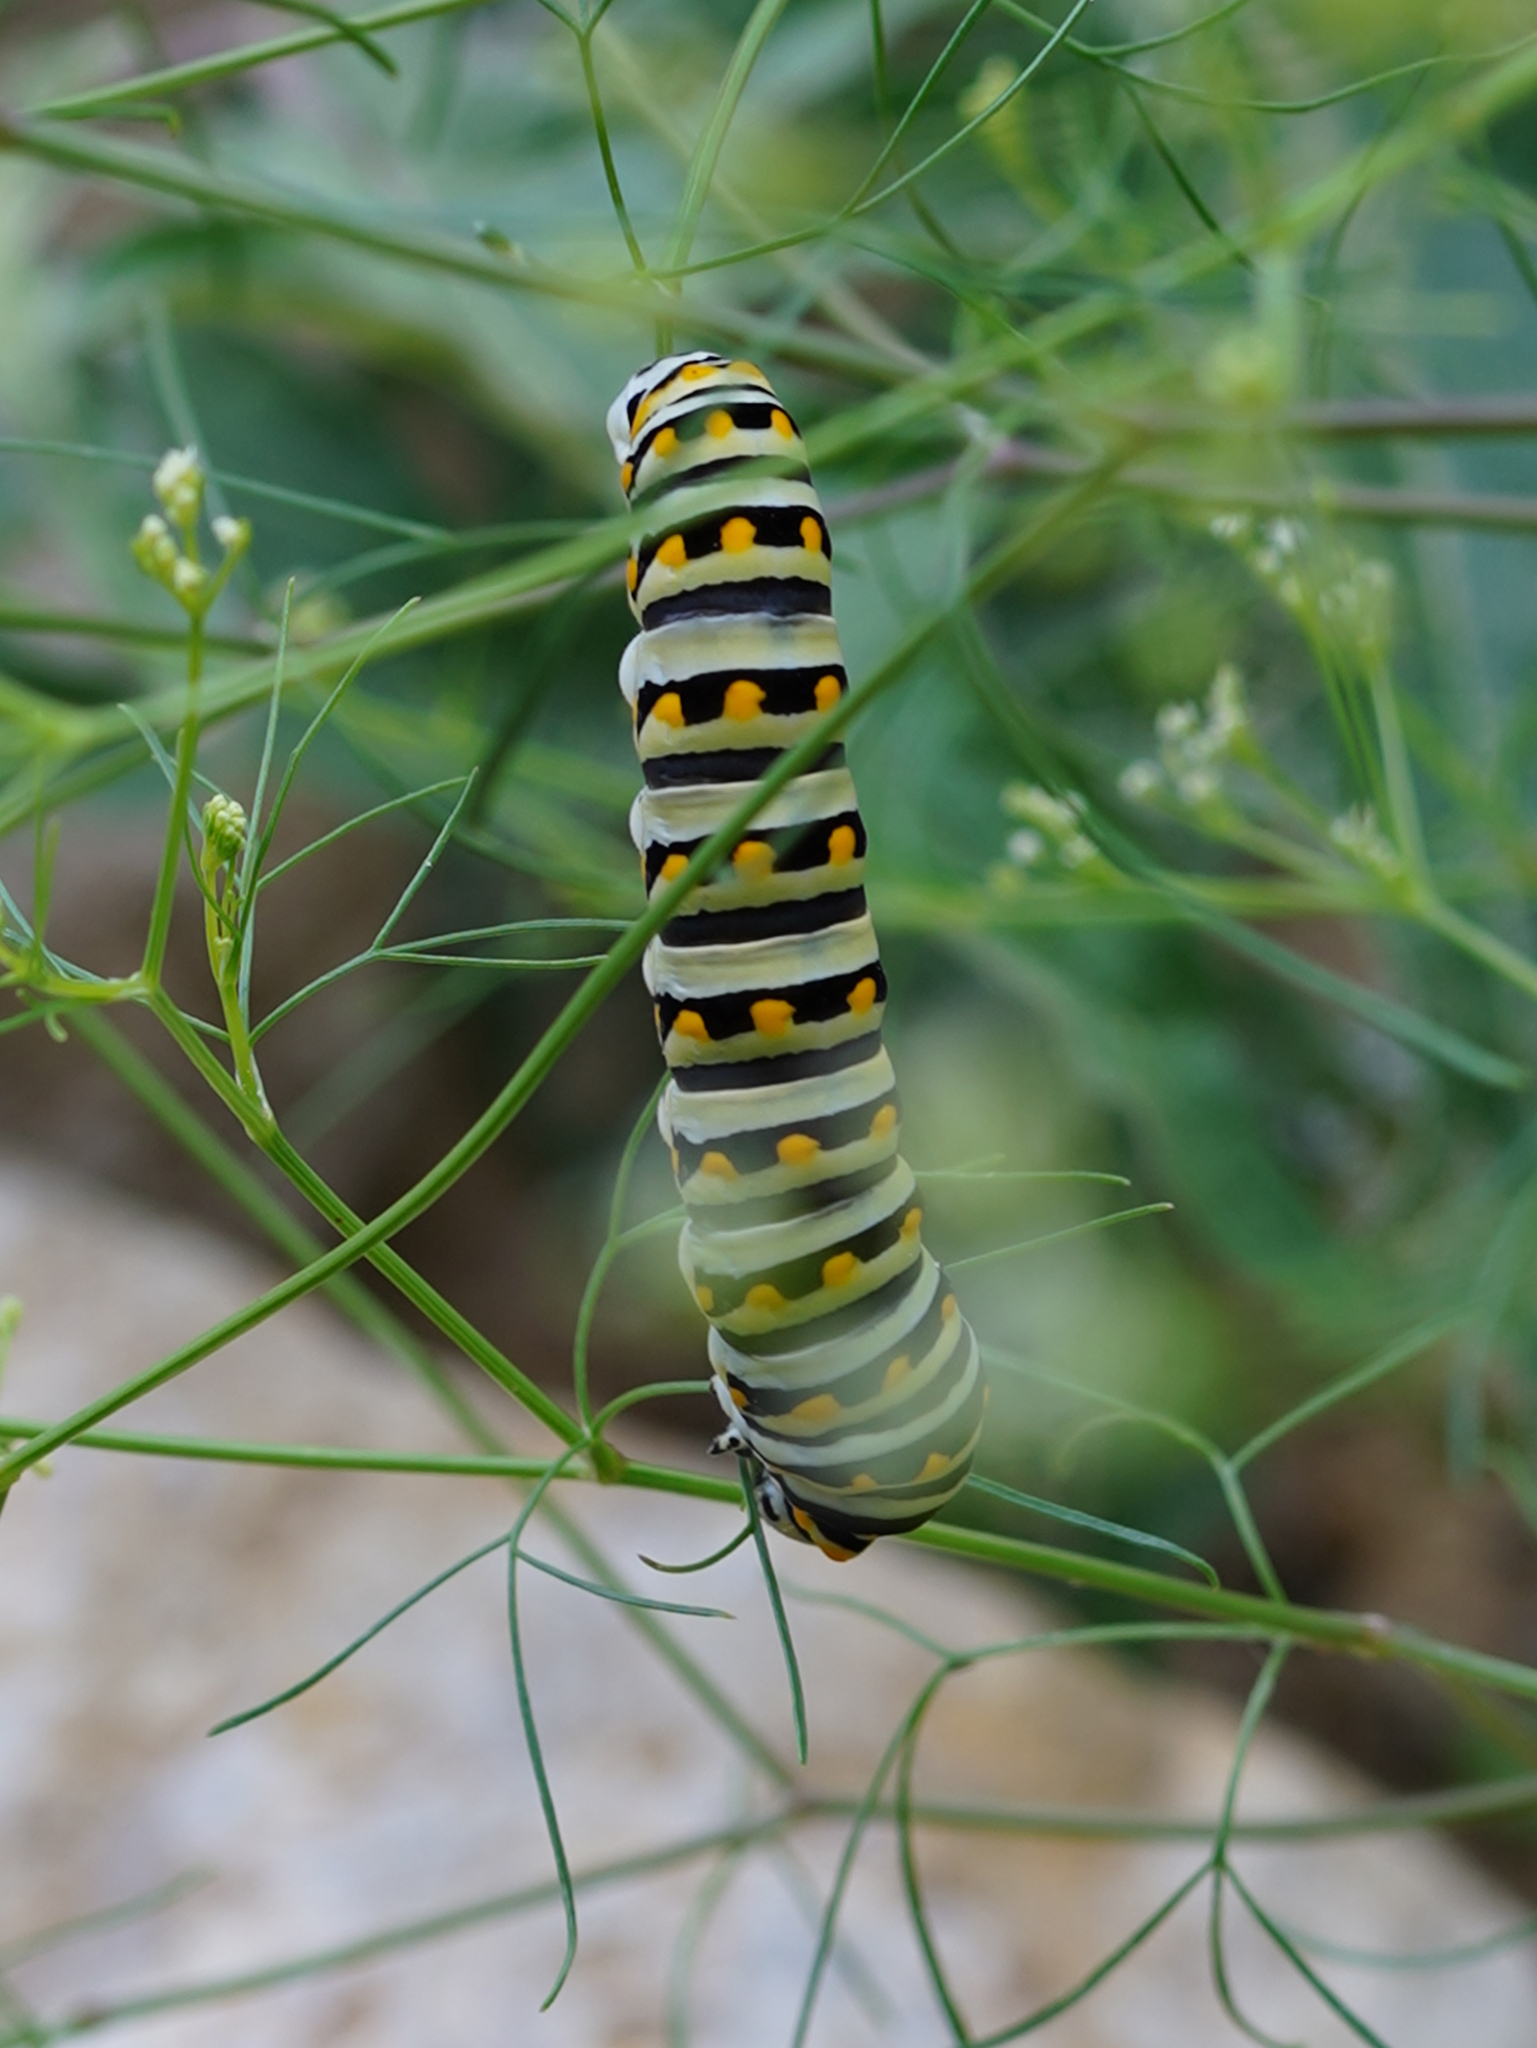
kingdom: Animalia
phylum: Arthropoda
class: Insecta
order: Lepidoptera
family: Papilionidae
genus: Papilio
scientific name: Papilio polyxenes
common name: Black swallowtail
